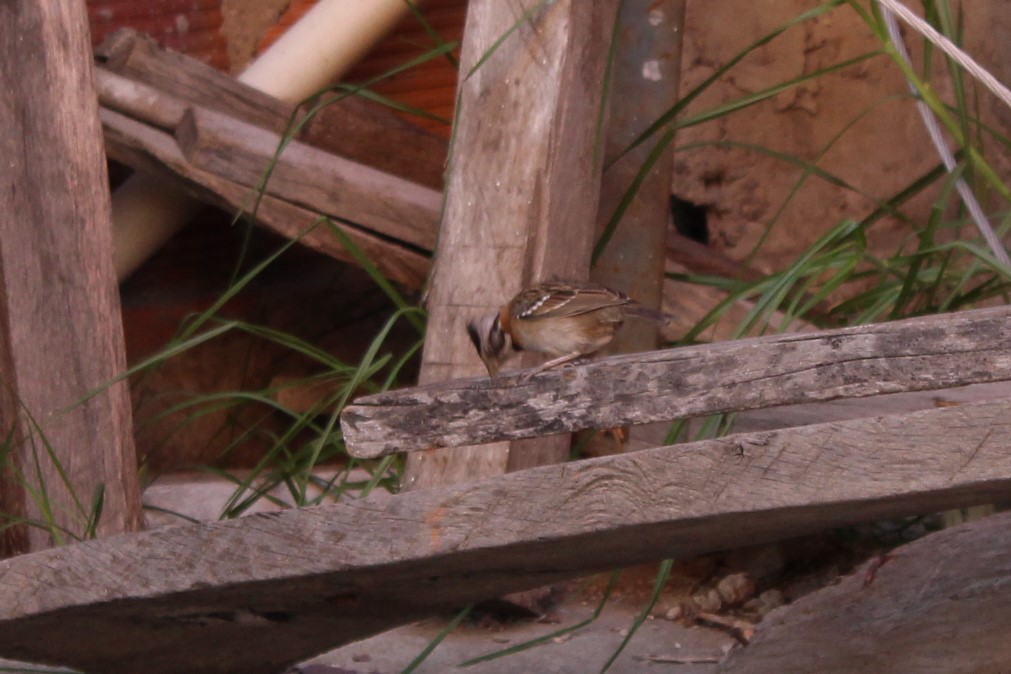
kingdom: Animalia
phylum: Chordata
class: Aves
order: Passeriformes
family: Passerellidae
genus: Zonotrichia
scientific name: Zonotrichia capensis
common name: Rufous-collared sparrow
